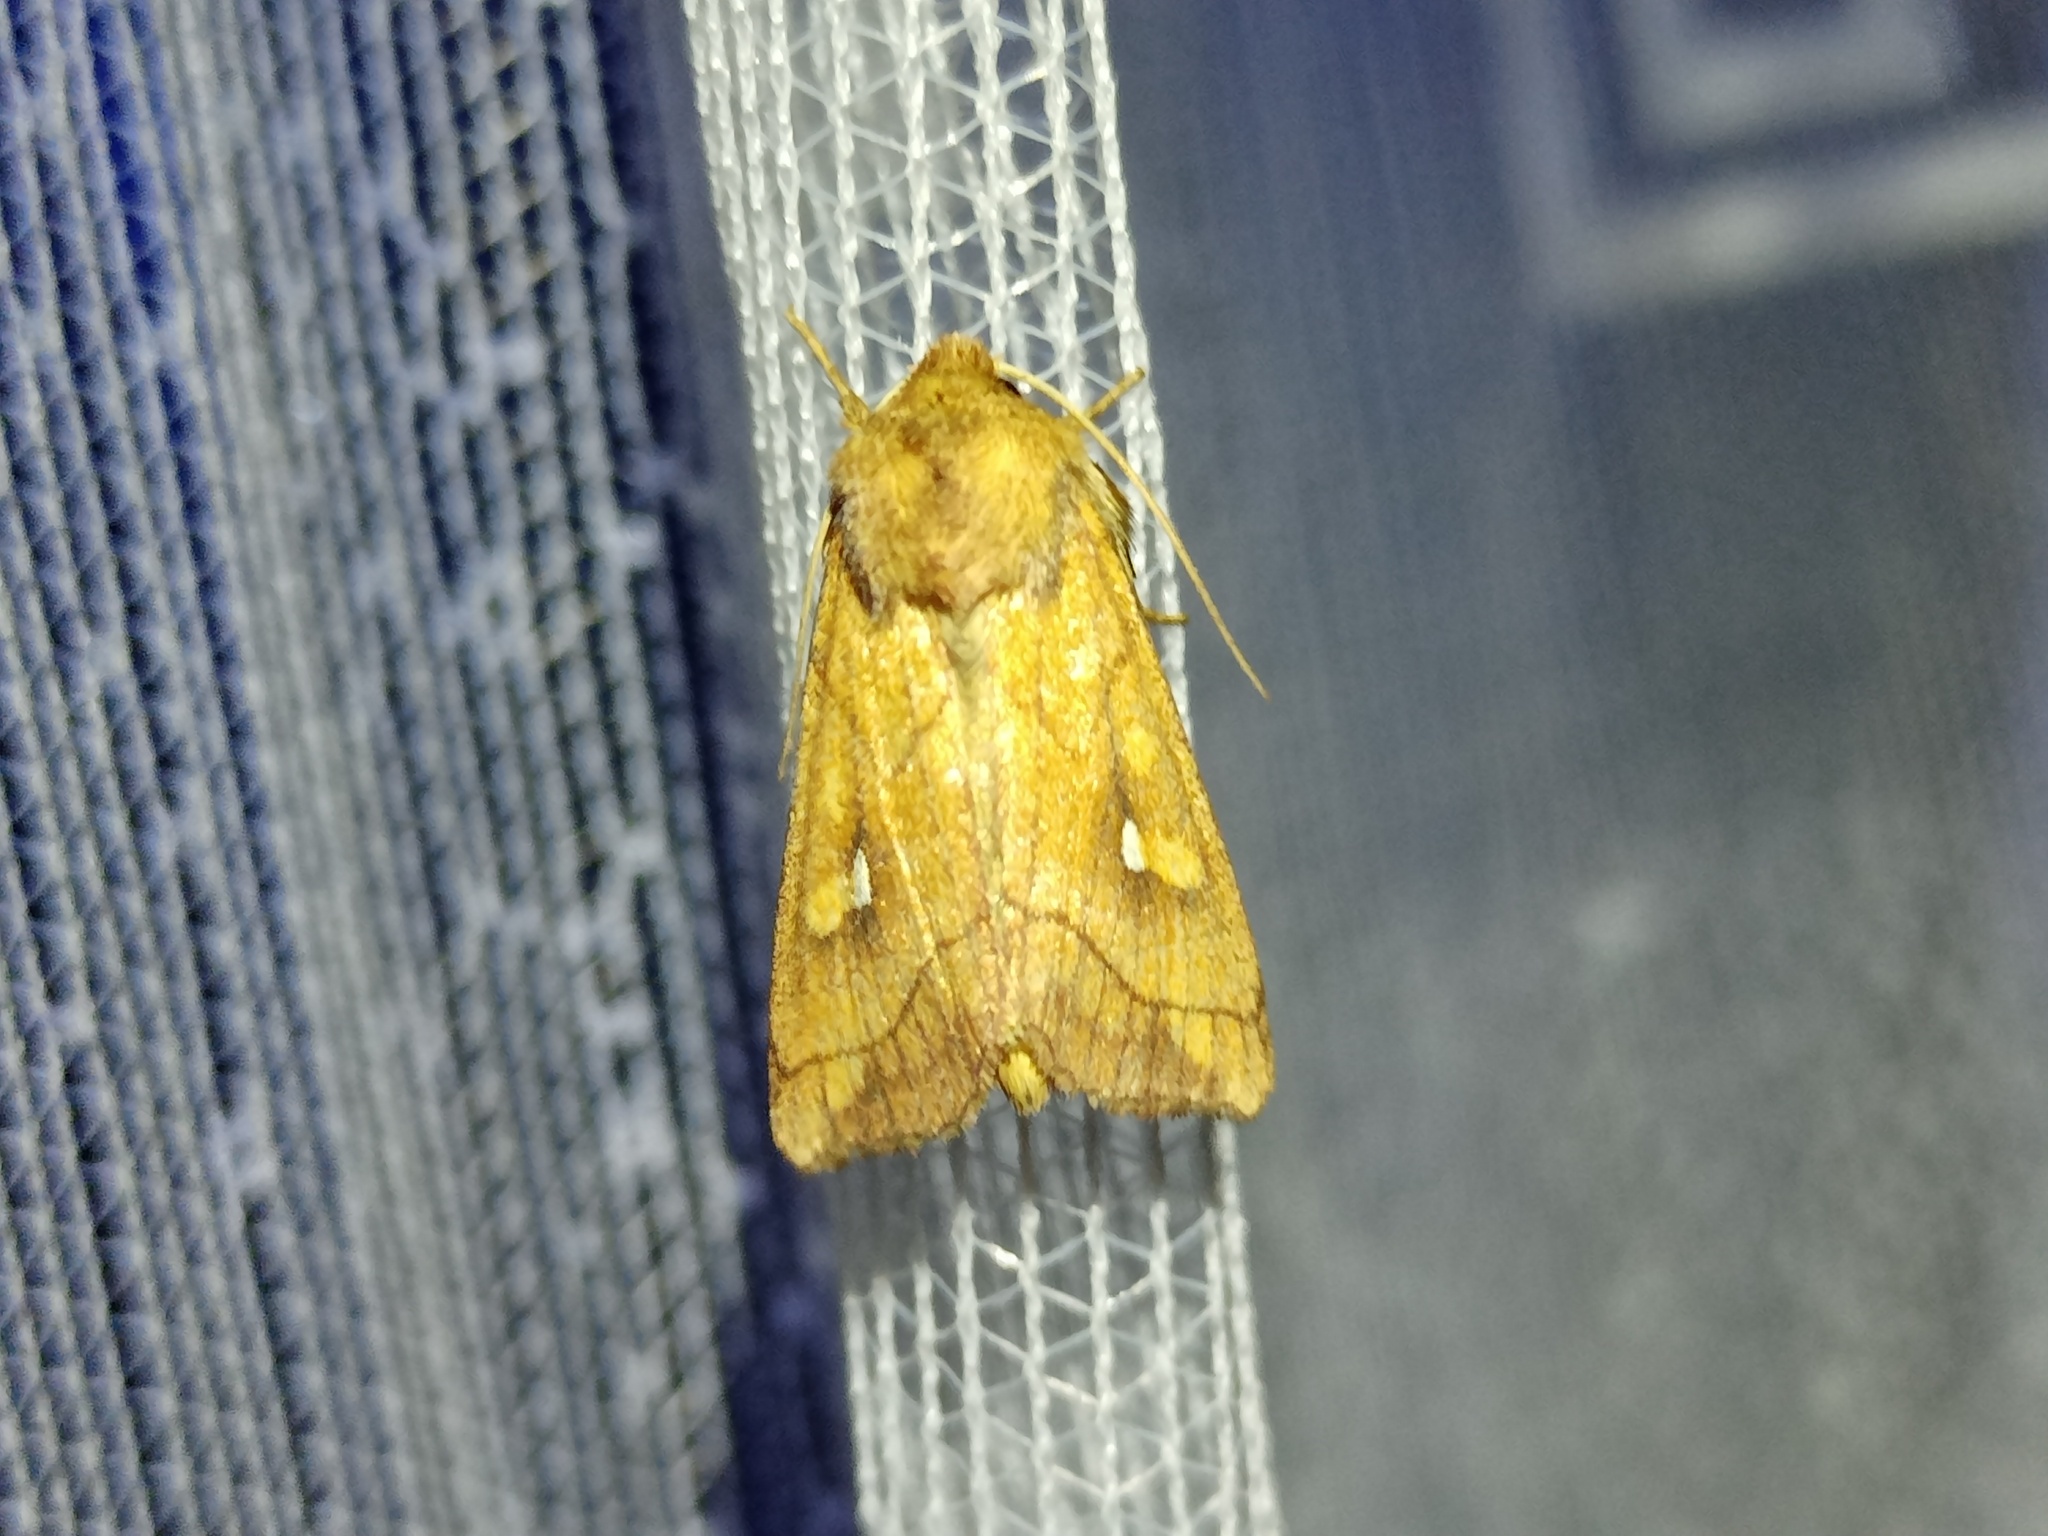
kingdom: Animalia
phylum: Arthropoda
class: Insecta
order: Lepidoptera
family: Noctuidae
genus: Mythimna
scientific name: Mythimna conigera
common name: Brown-line bright-eye
